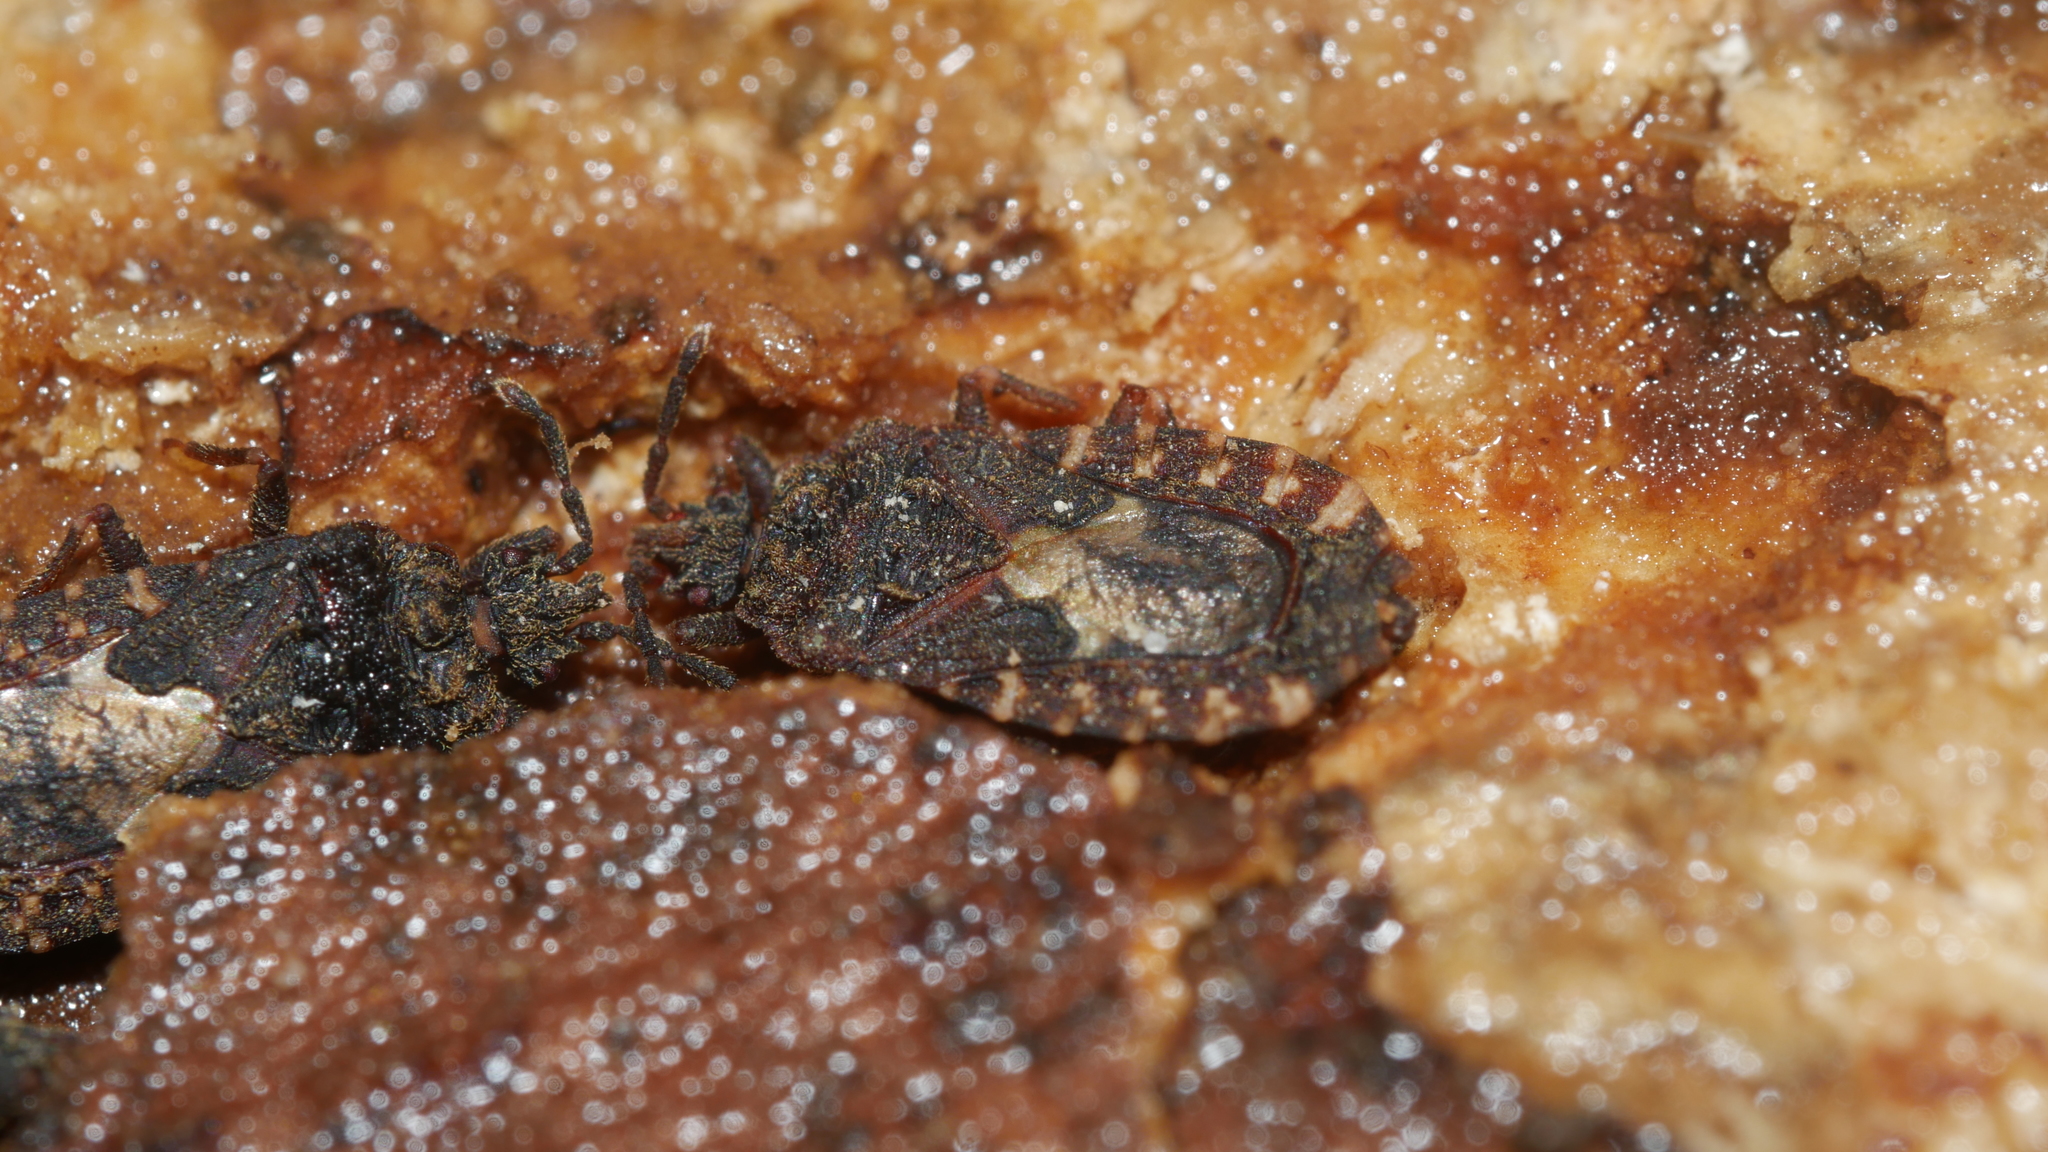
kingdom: Animalia
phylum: Arthropoda
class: Insecta
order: Hemiptera
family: Aradidae
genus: Mezira
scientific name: Mezira
